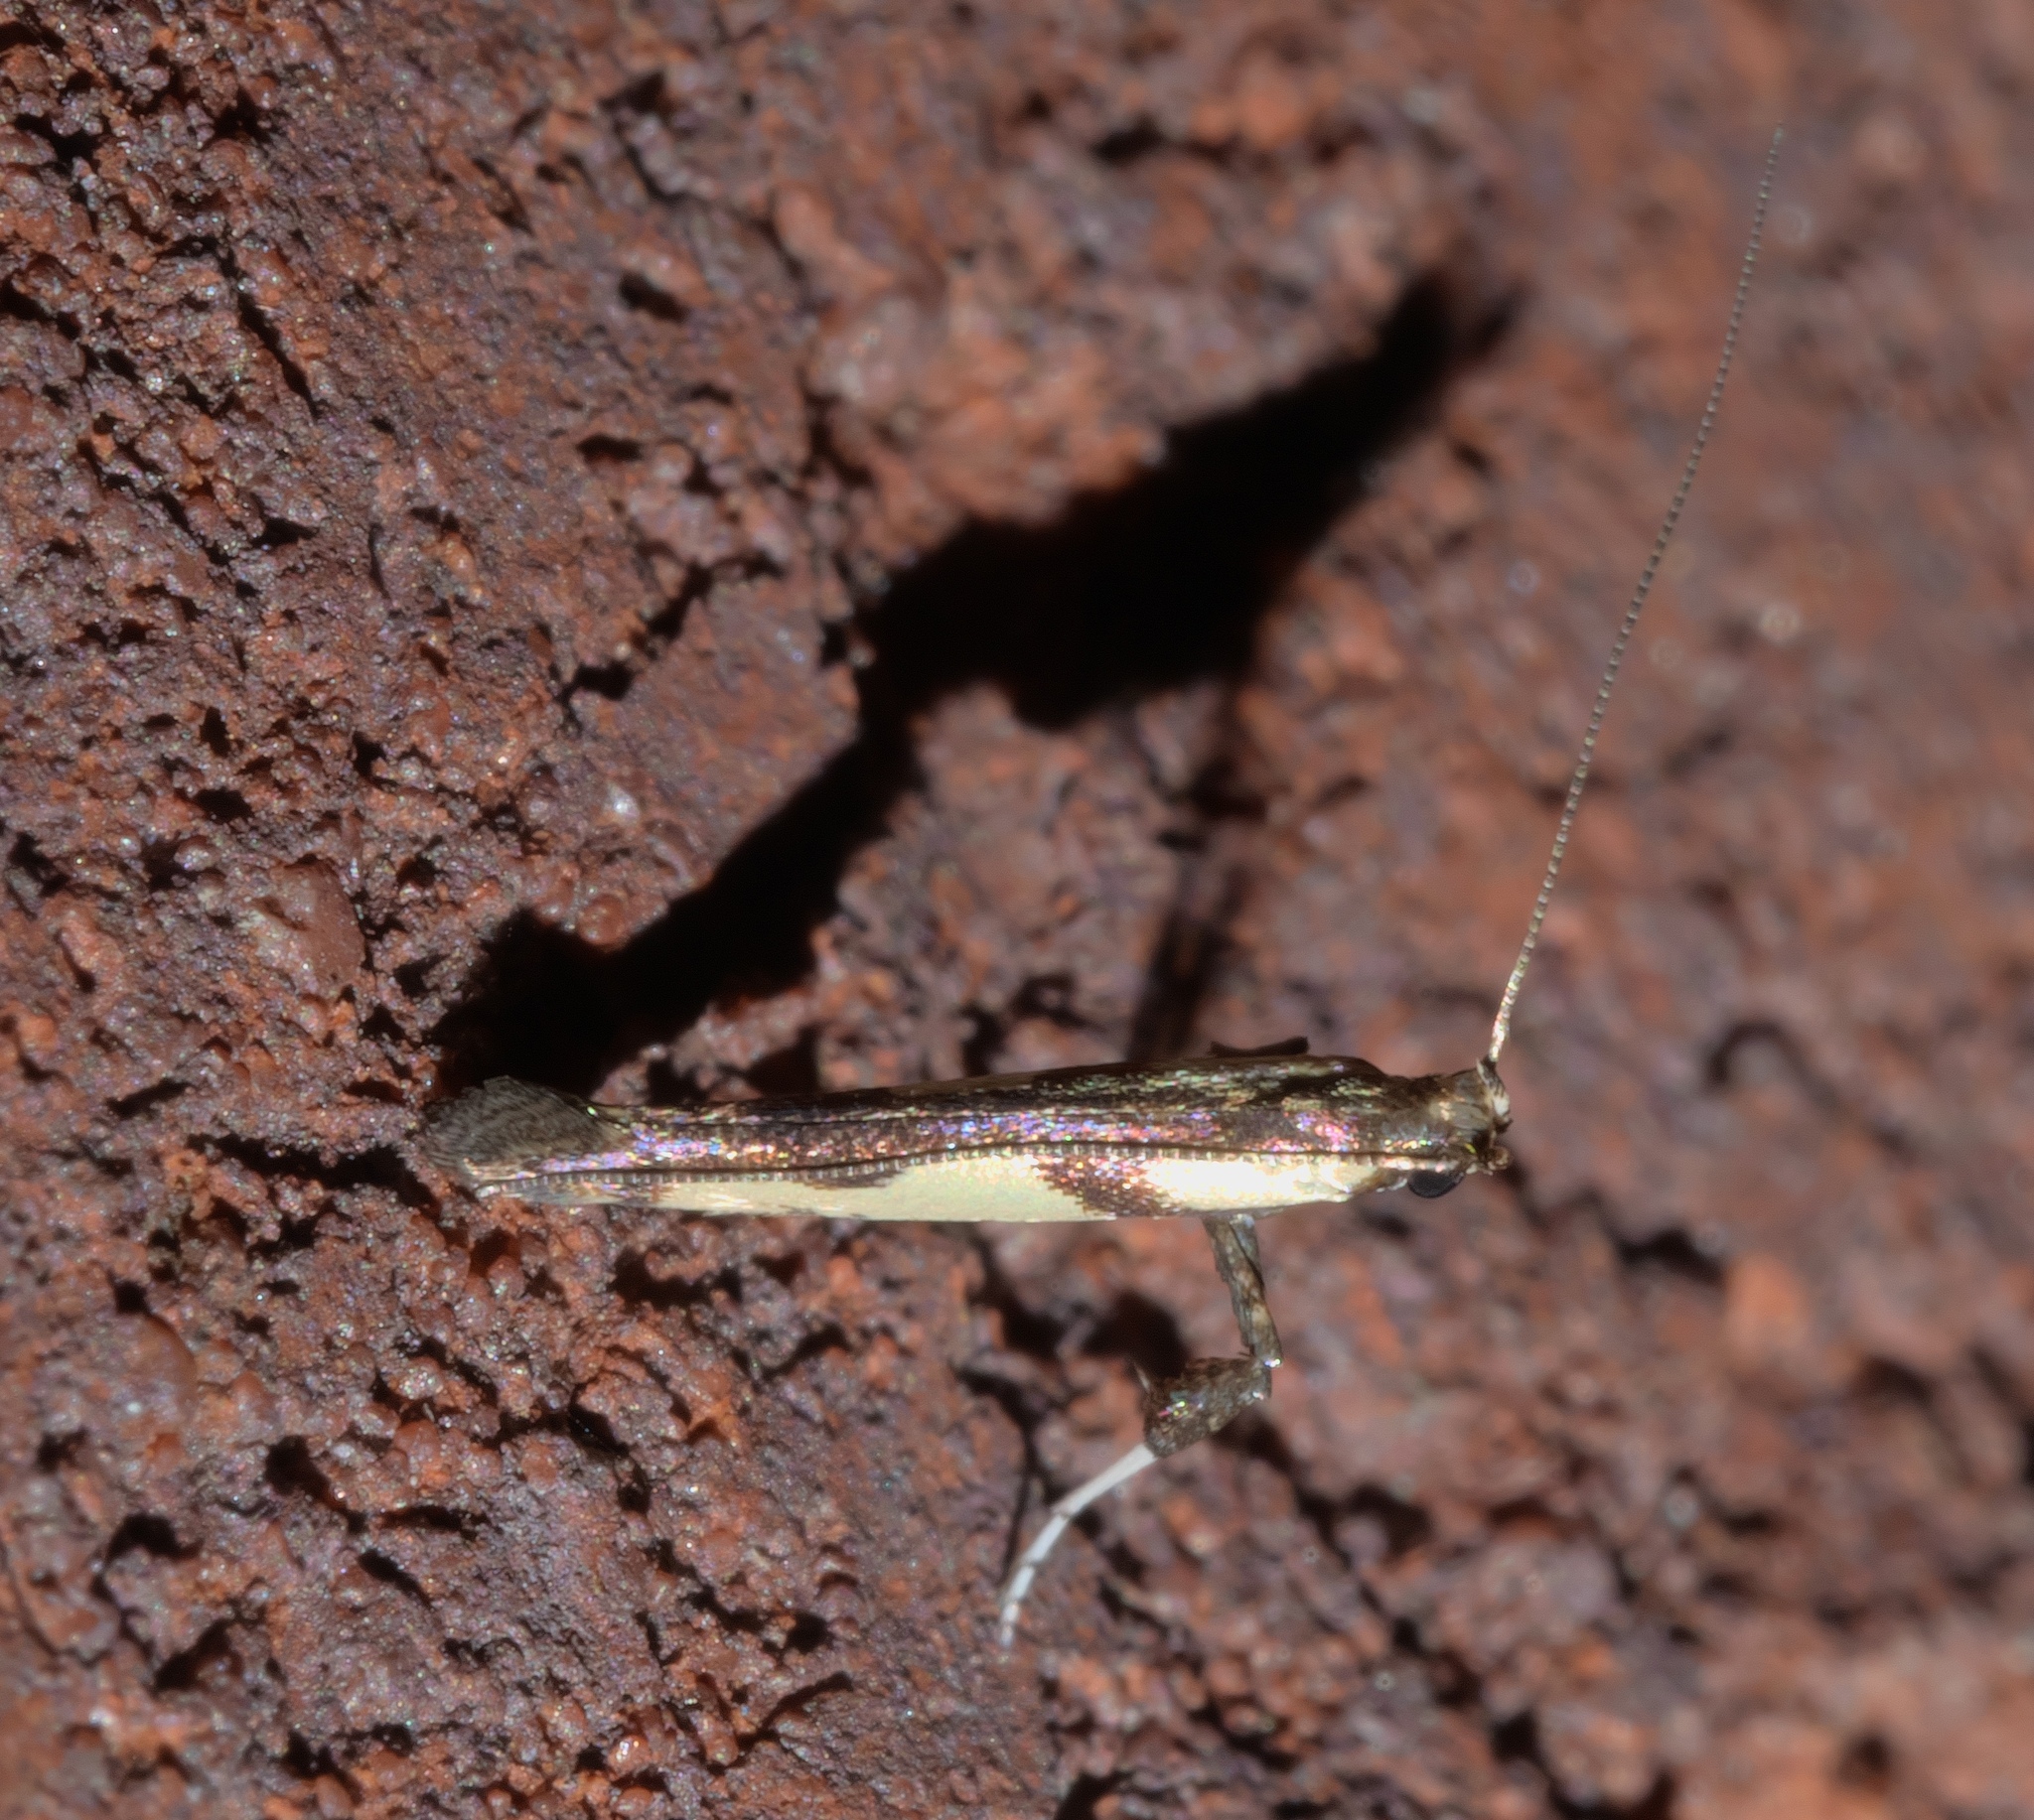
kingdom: Animalia
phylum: Arthropoda
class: Insecta
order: Lepidoptera
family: Gracillariidae
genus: Caloptilia
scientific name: Caloptilia blandella
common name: Walnut caloptilia moth
